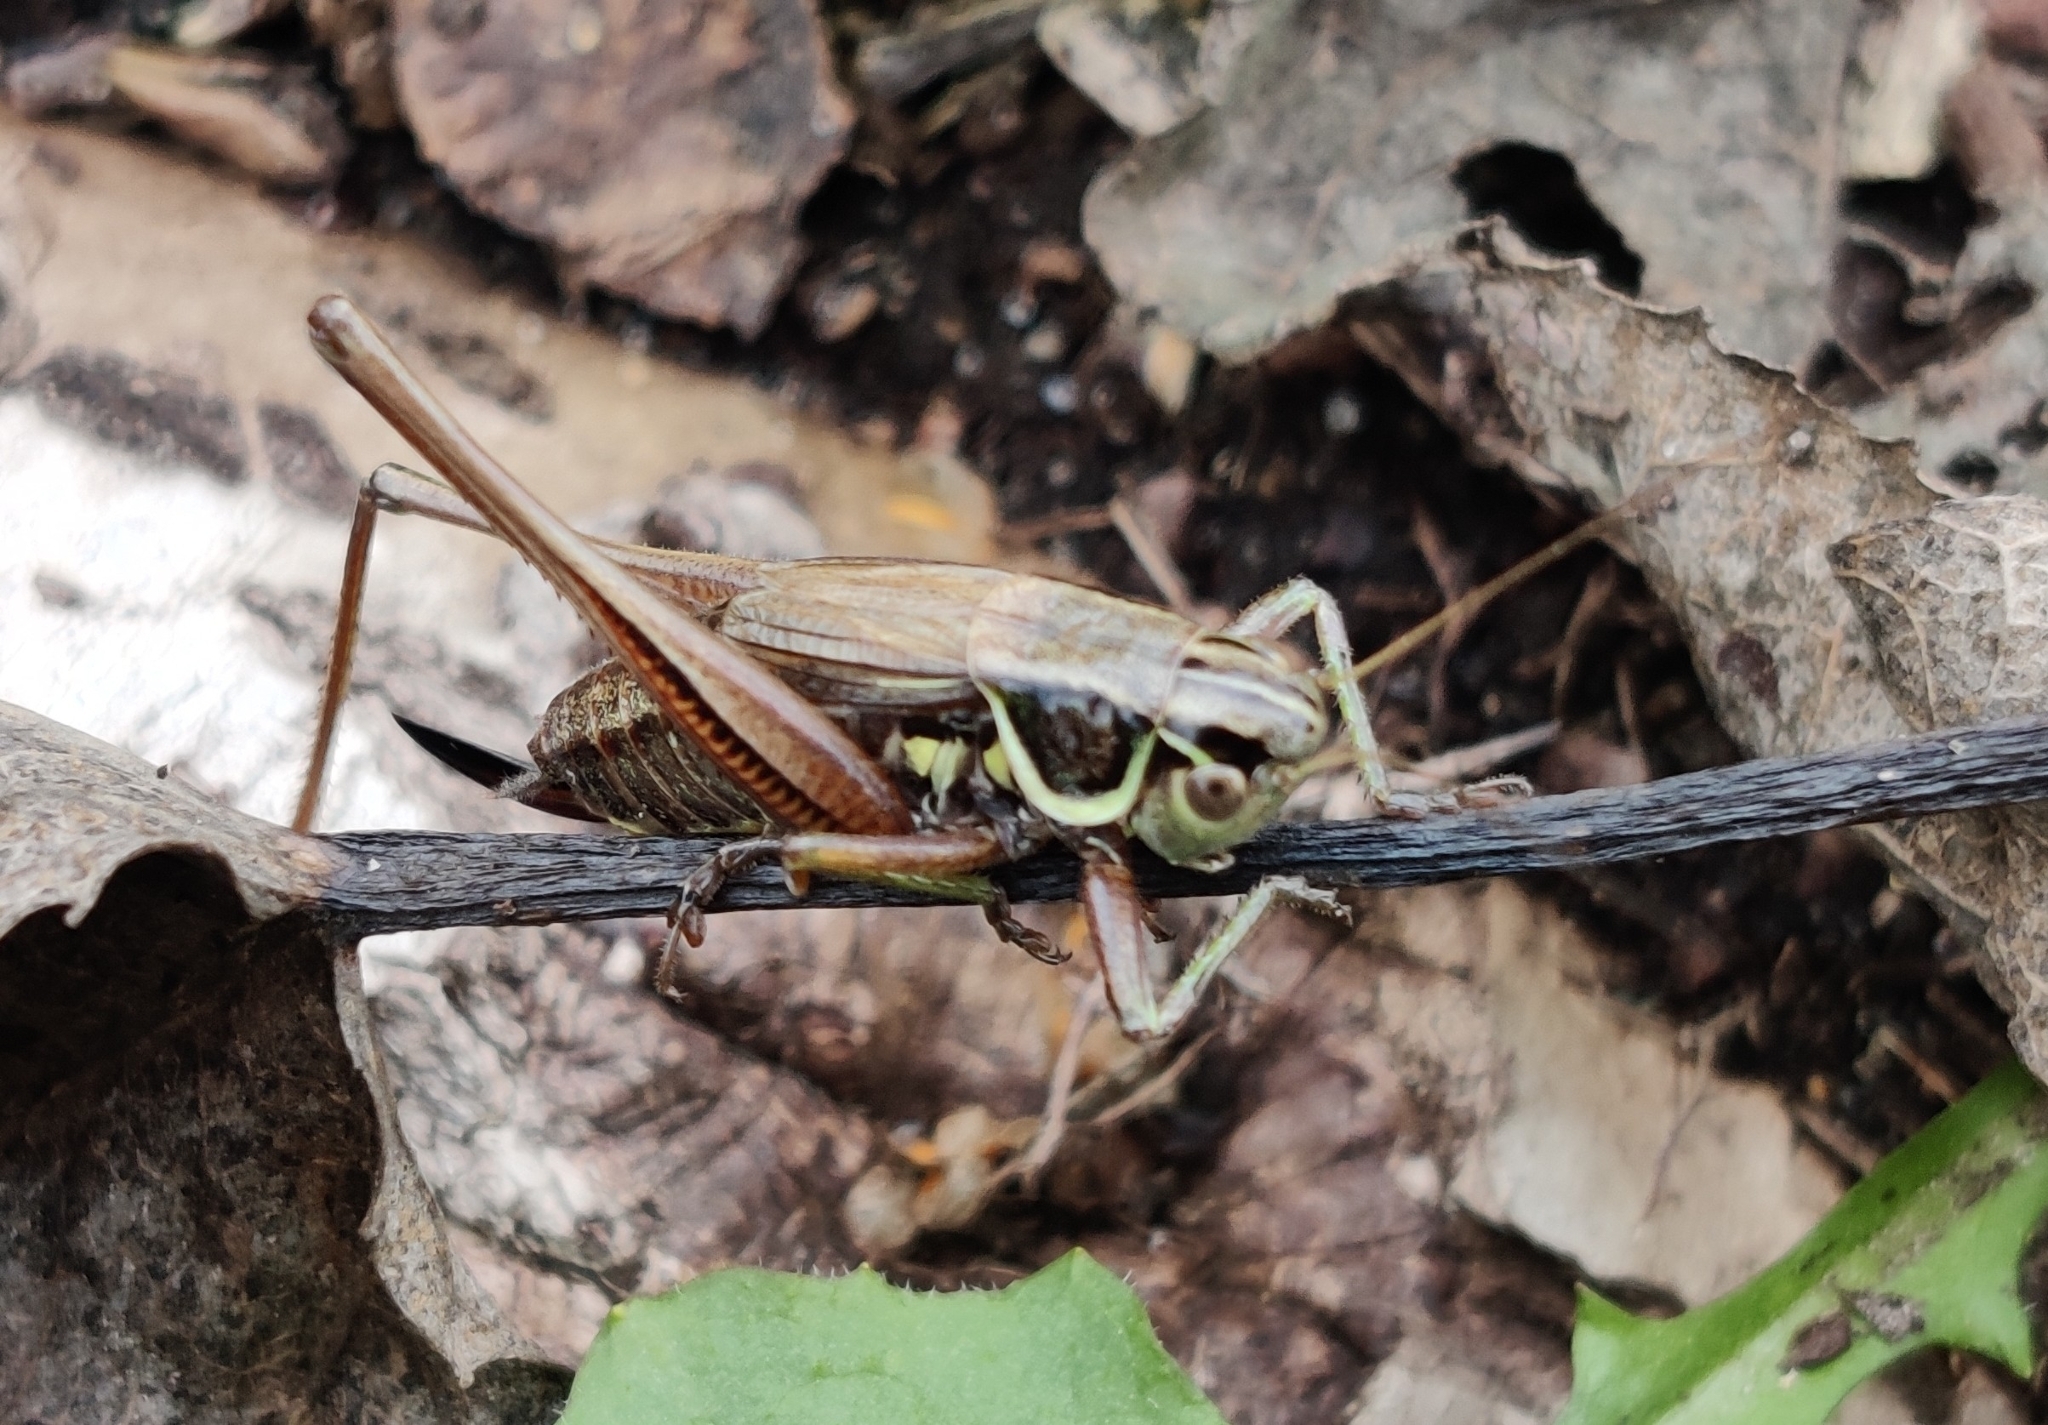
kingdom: Animalia
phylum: Arthropoda
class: Insecta
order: Orthoptera
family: Tettigoniidae
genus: Roeseliana
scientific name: Roeseliana roeselii
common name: Roesel's bush cricket
